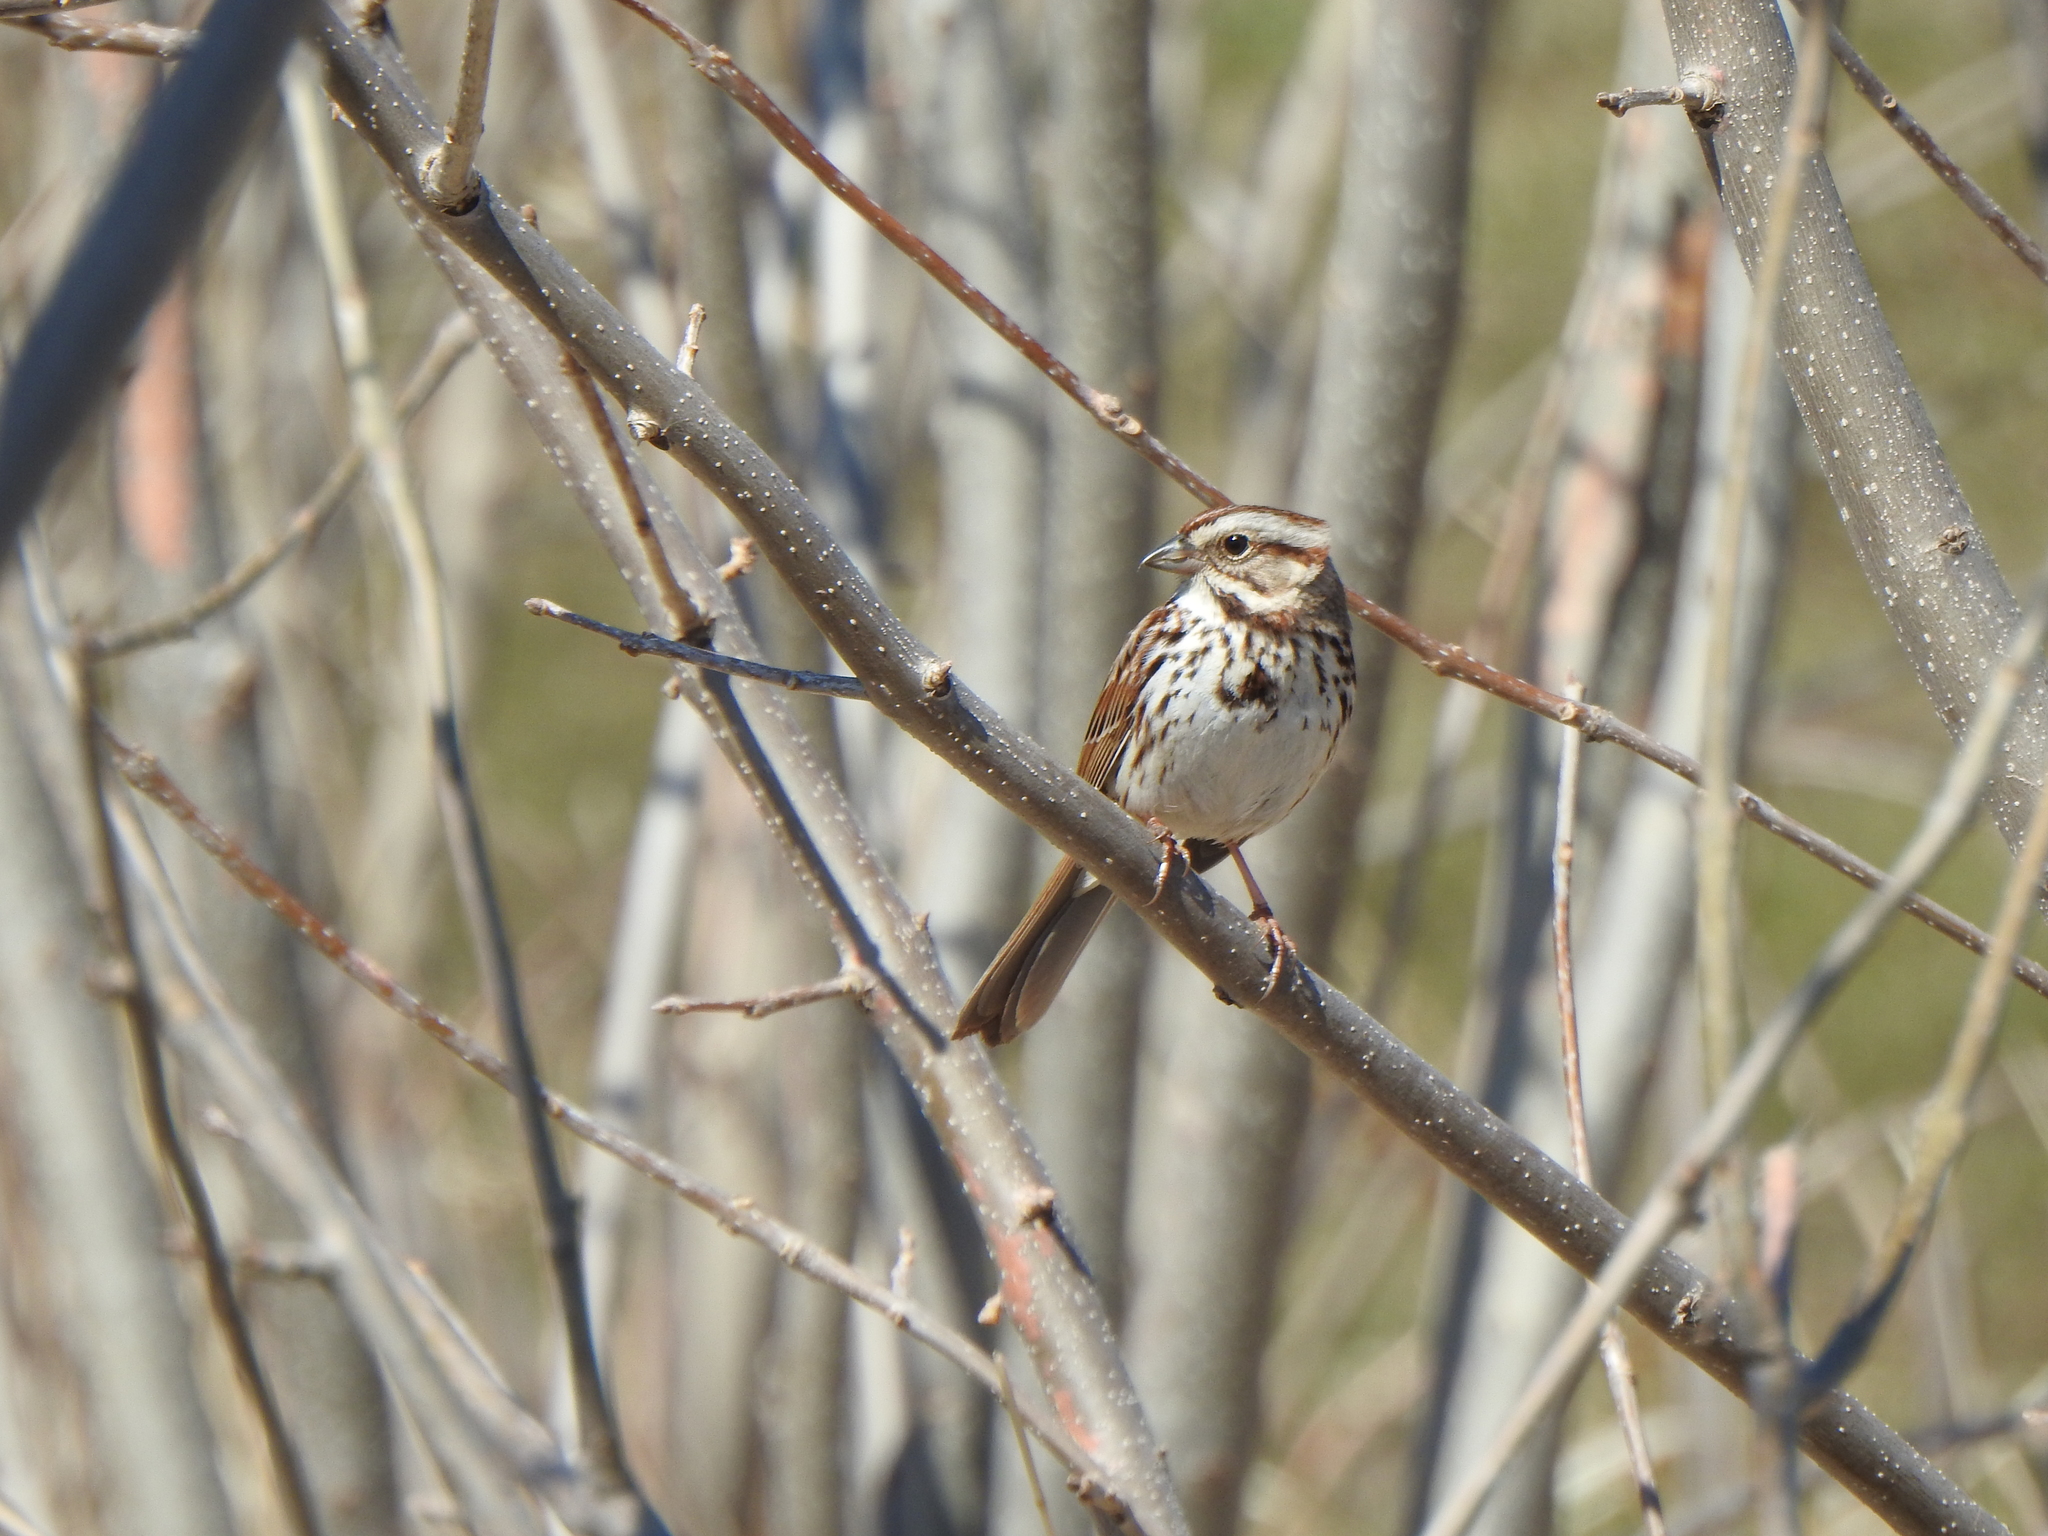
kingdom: Animalia
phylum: Chordata
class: Aves
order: Passeriformes
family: Passerellidae
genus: Melospiza
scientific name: Melospiza melodia
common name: Song sparrow
